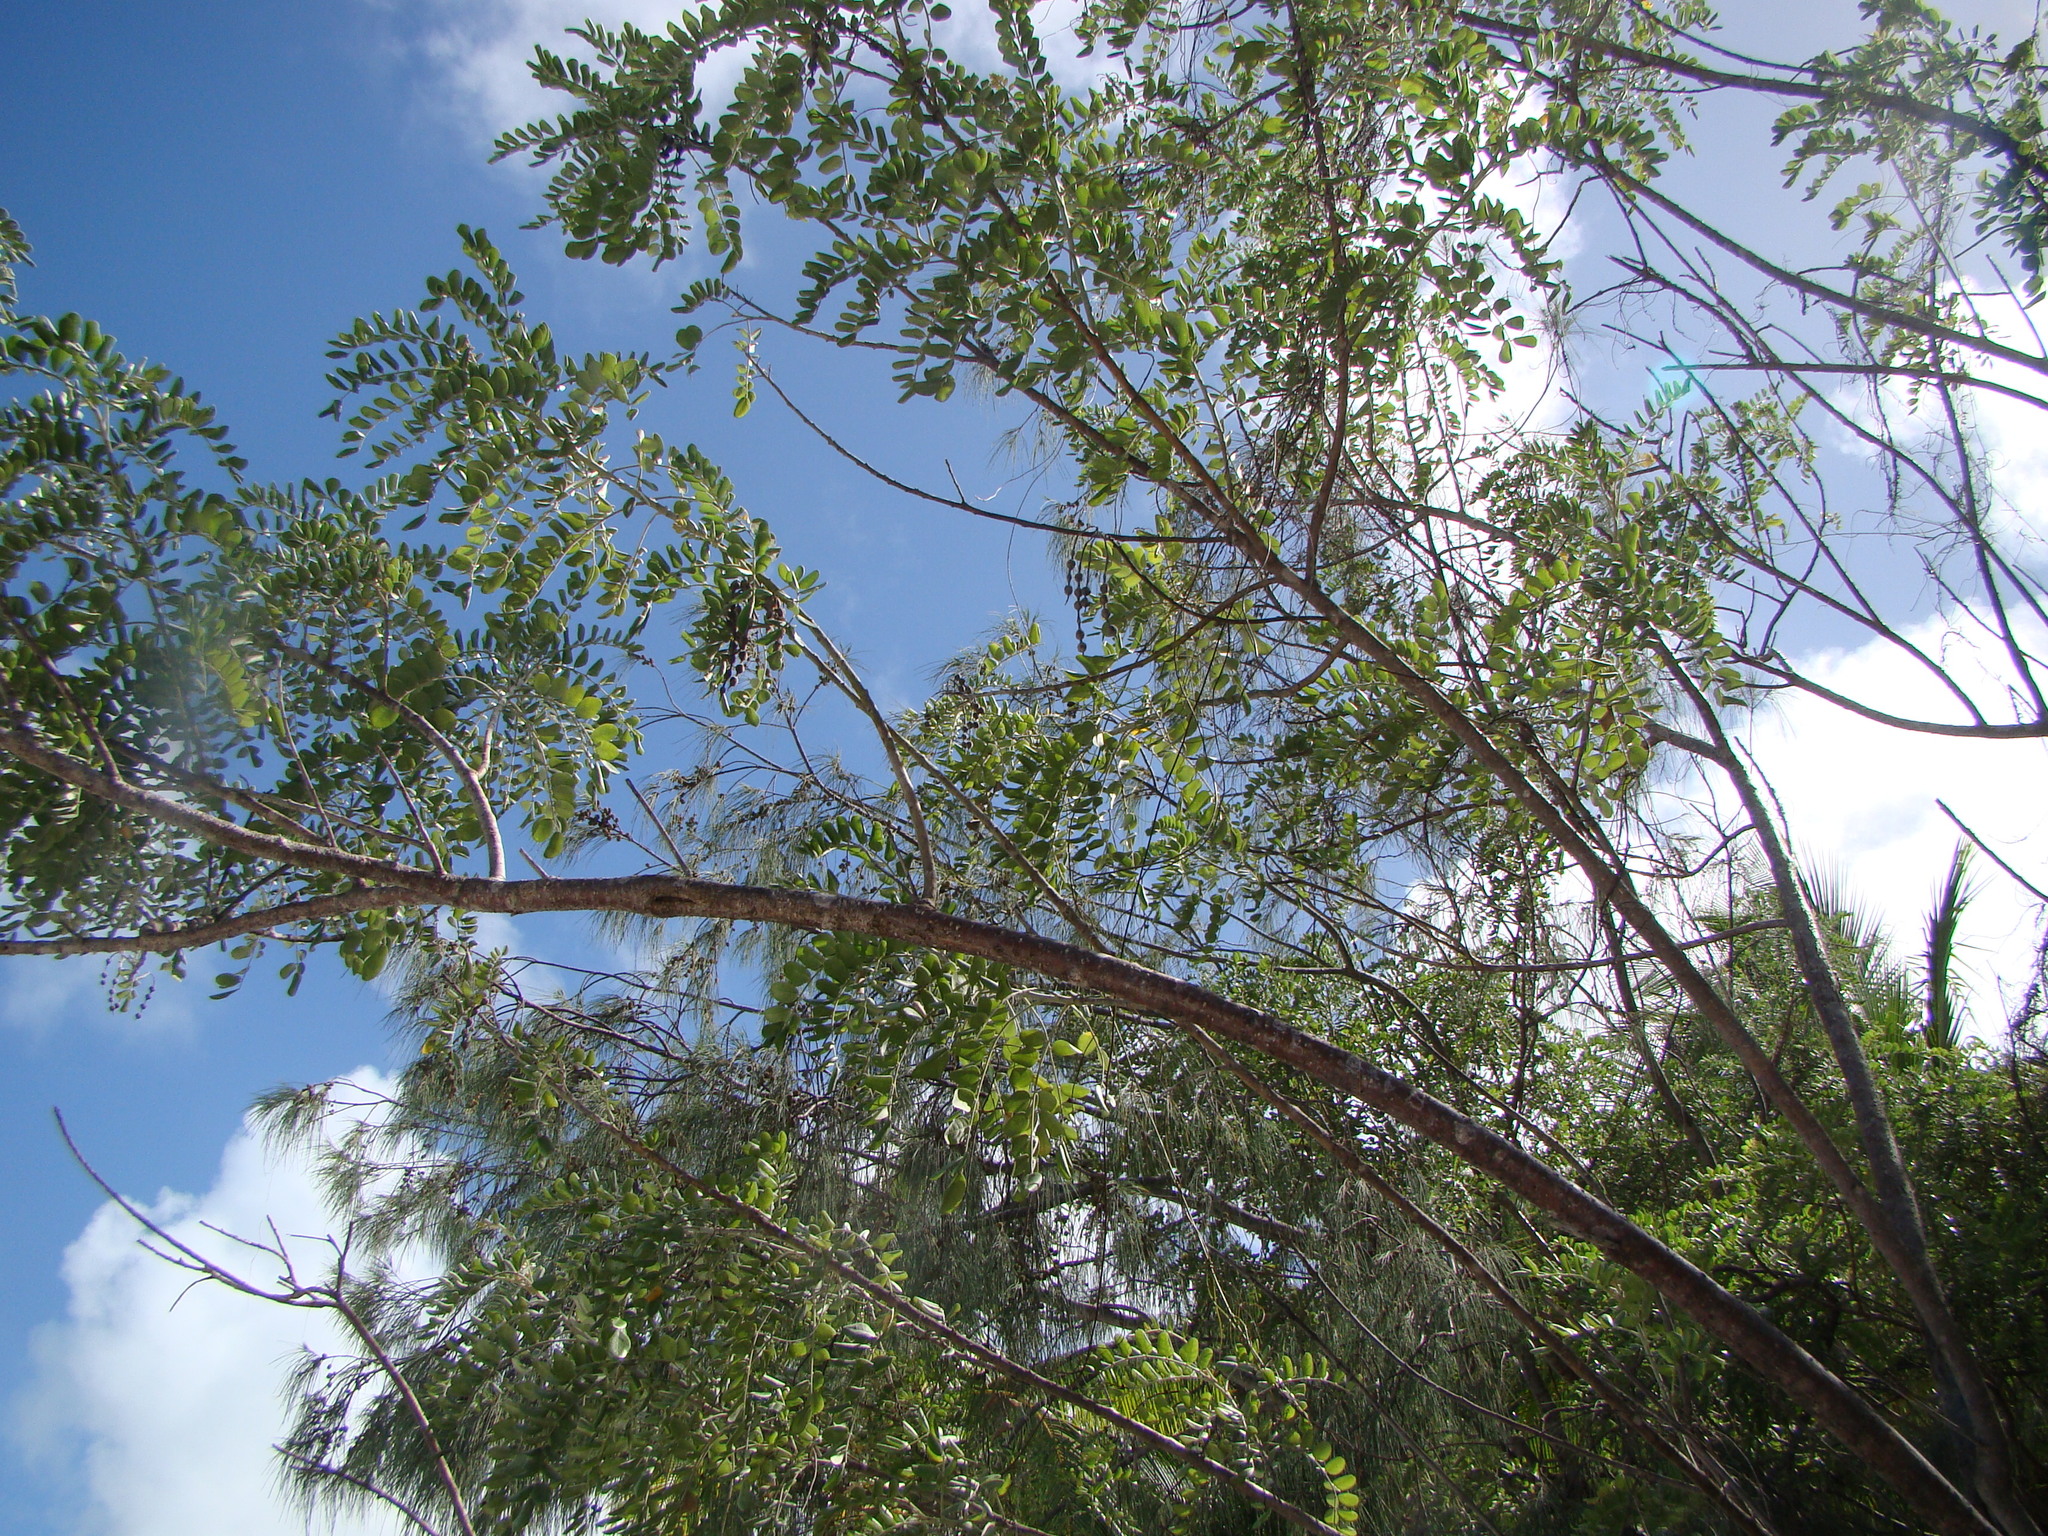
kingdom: Plantae
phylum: Tracheophyta
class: Magnoliopsida
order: Fabales
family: Fabaceae
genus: Sophora
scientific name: Sophora tomentosa
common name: Yellow necklacepod
